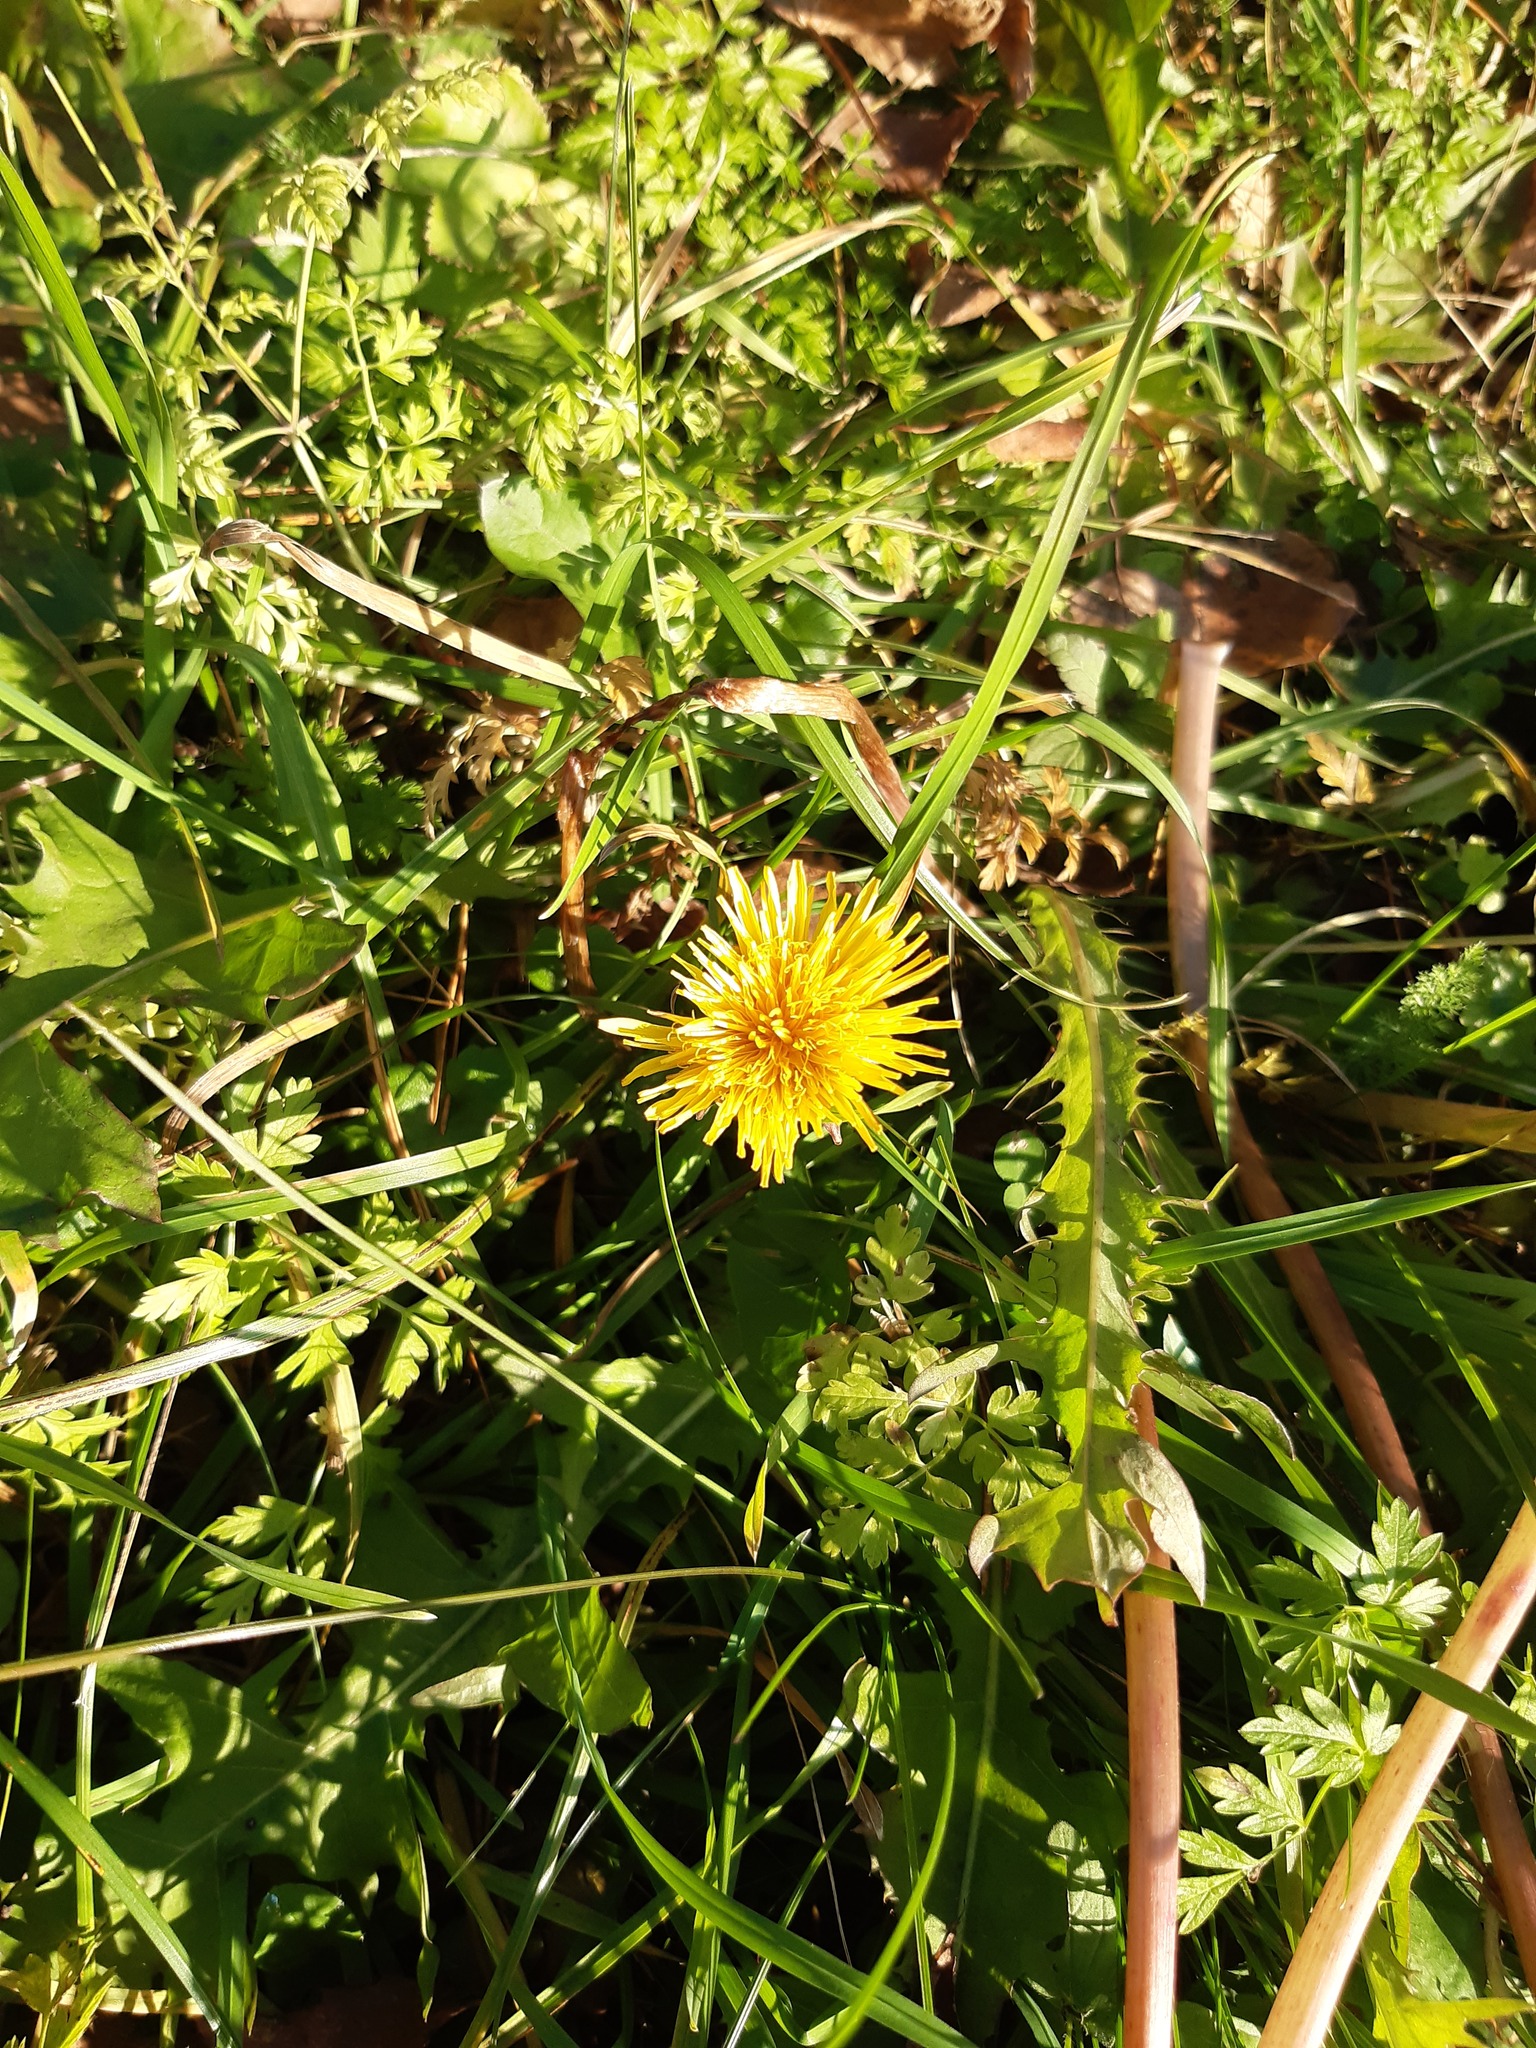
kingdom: Plantae
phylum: Tracheophyta
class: Magnoliopsida
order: Asterales
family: Asteraceae
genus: Taraxacum
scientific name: Taraxacum officinale
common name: Common dandelion
